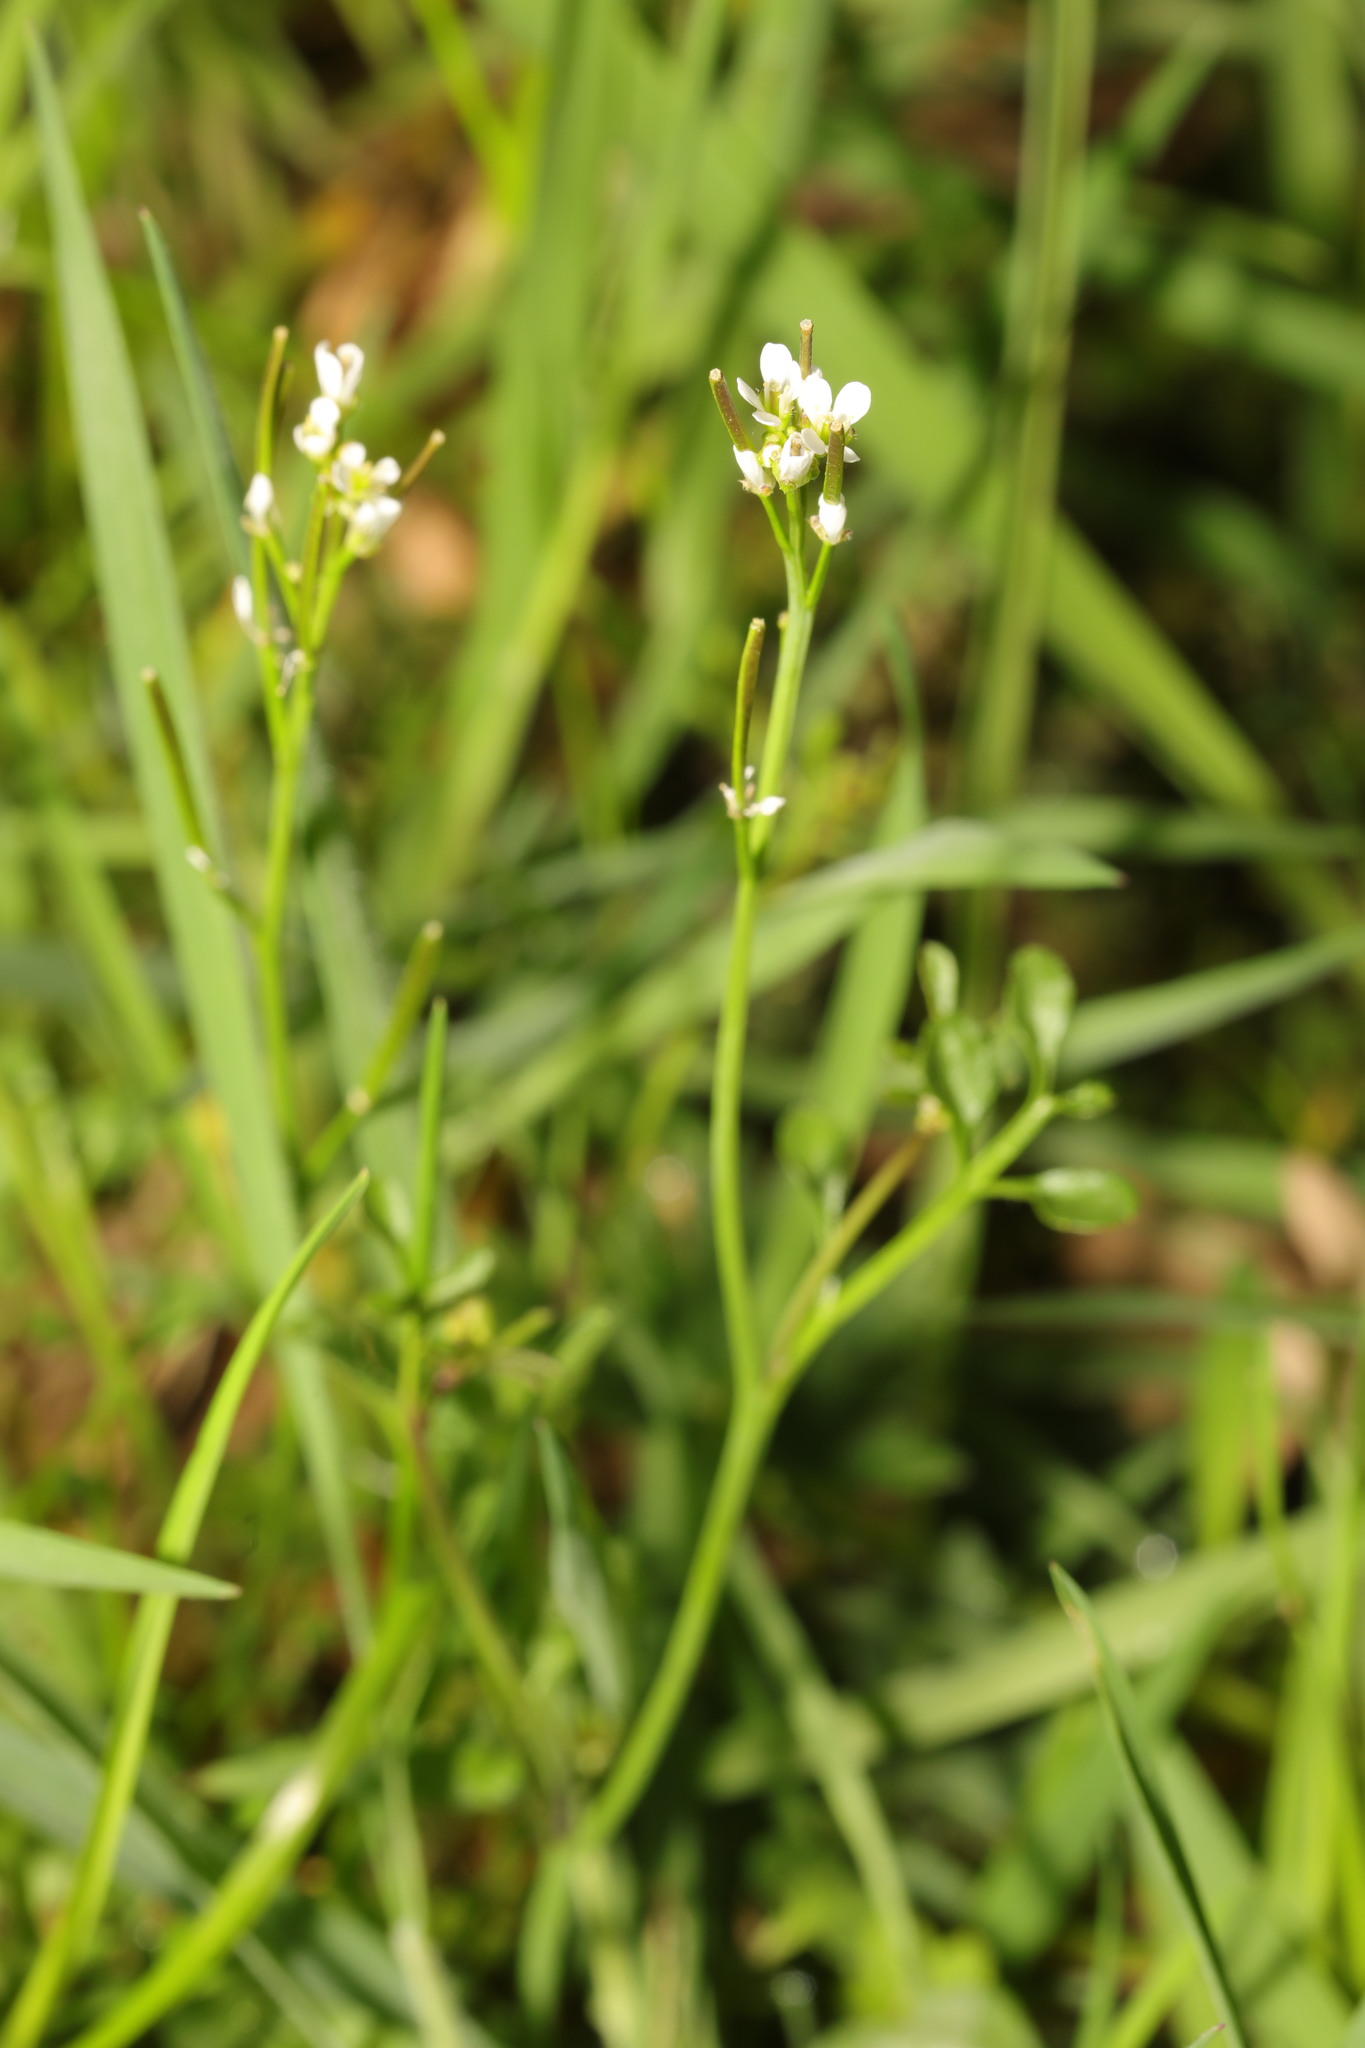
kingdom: Plantae
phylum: Tracheophyta
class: Magnoliopsida
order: Brassicales
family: Brassicaceae
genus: Cardamine
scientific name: Cardamine flexuosa
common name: Woodland bittercress
